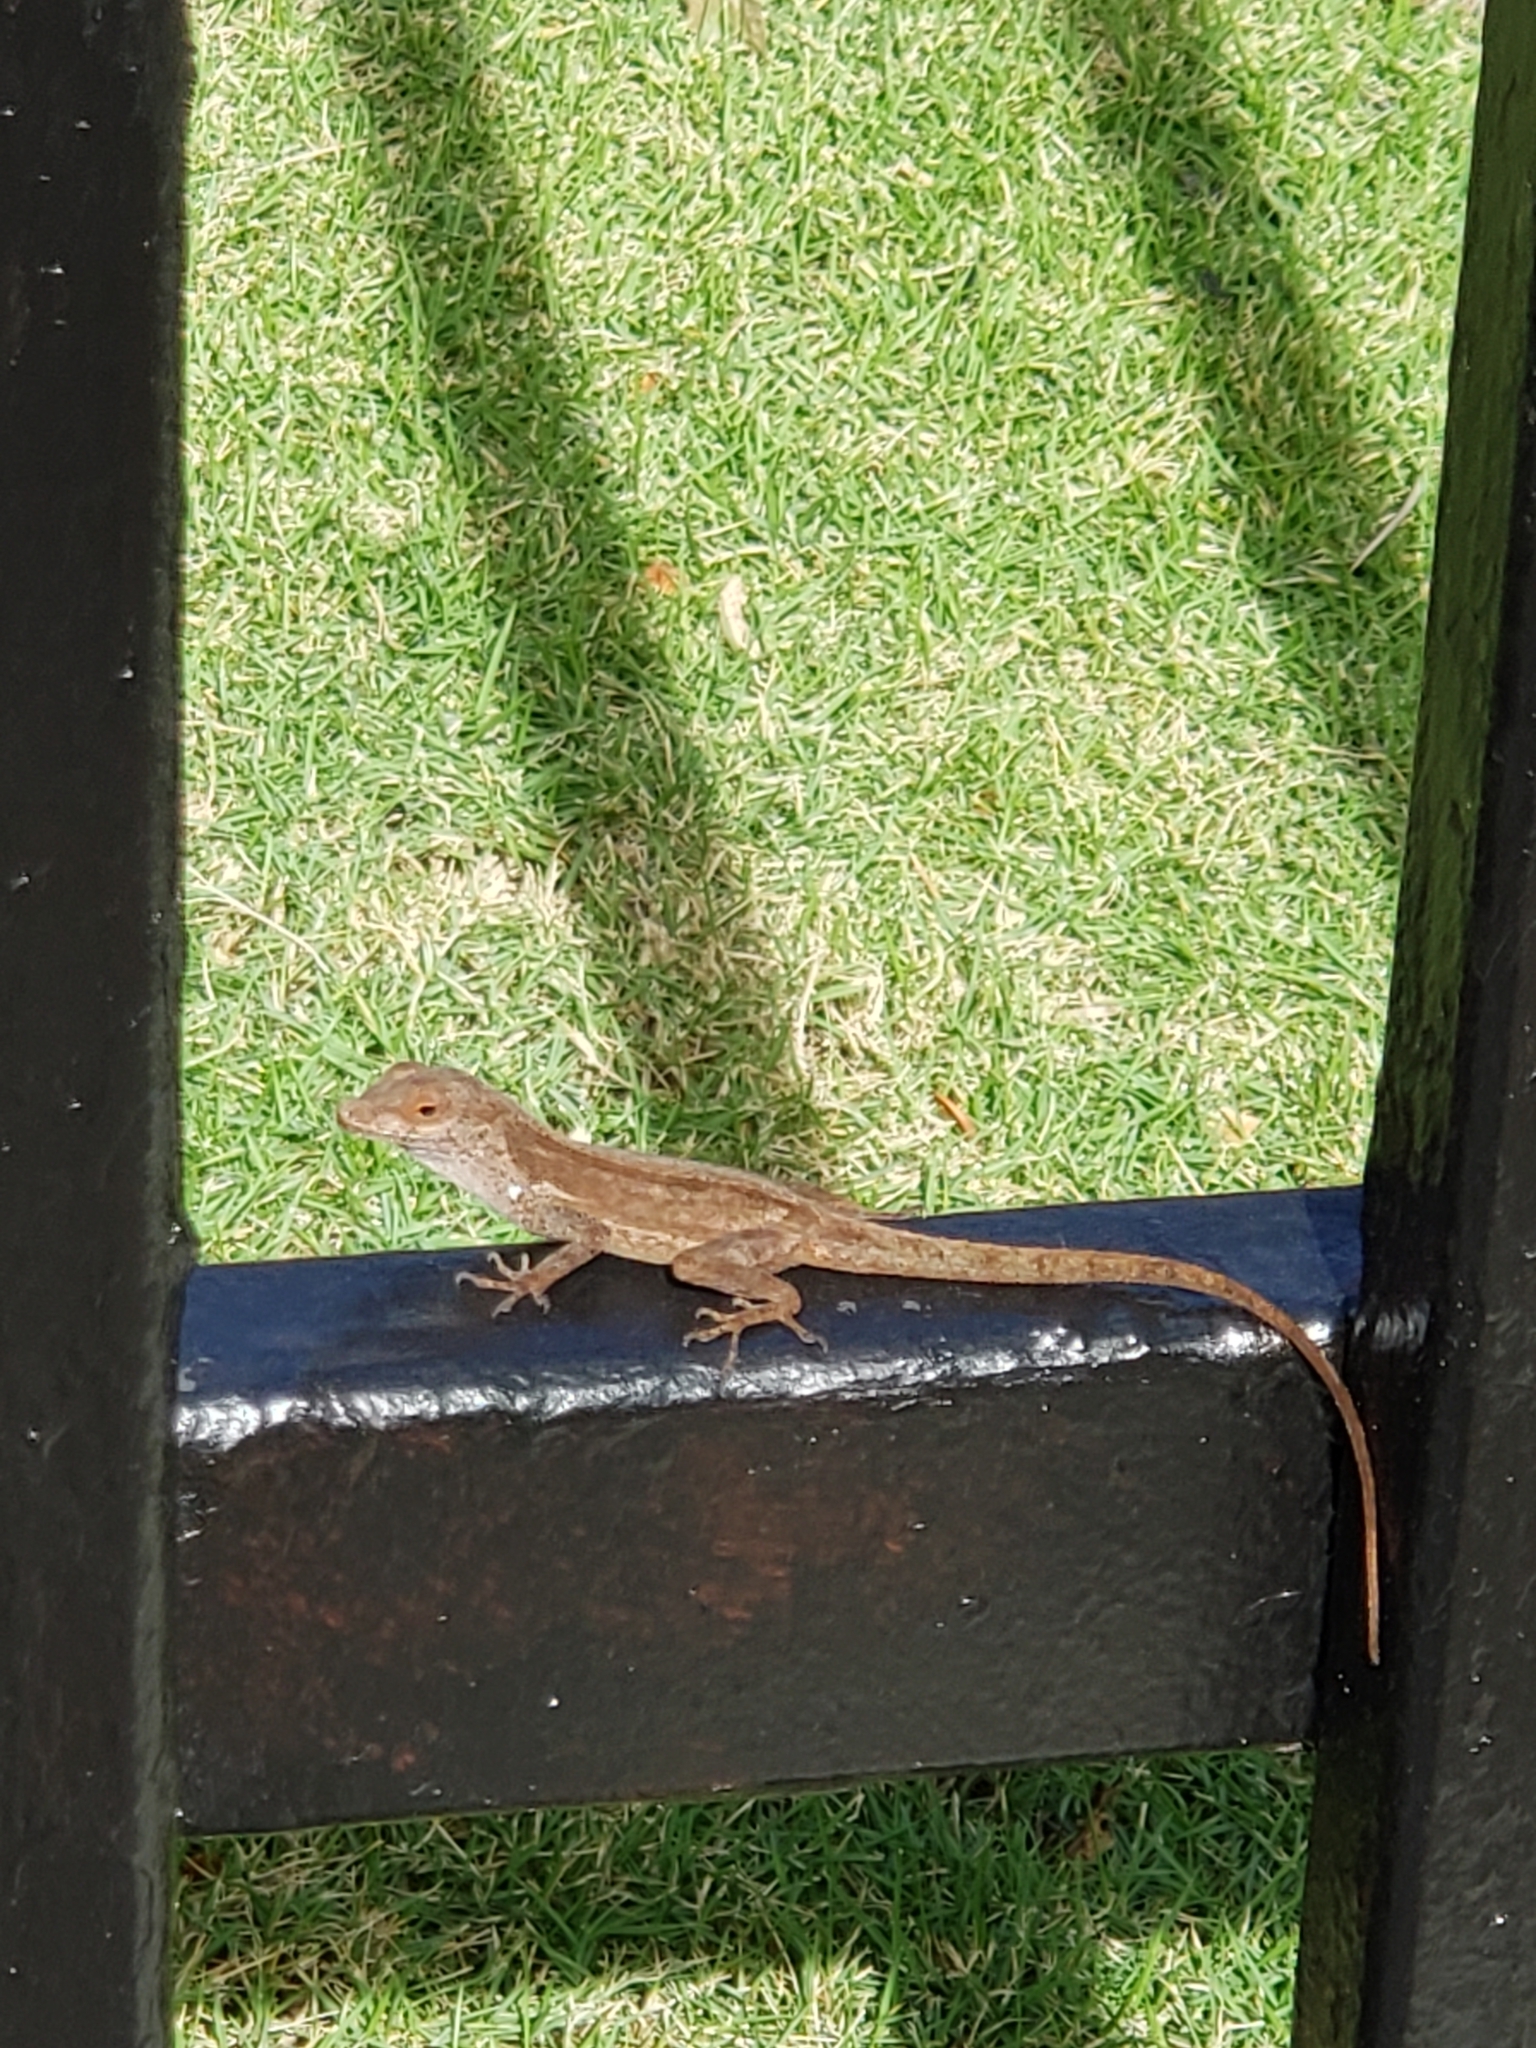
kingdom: Animalia
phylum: Chordata
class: Squamata
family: Dactyloidae
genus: Anolis
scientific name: Anolis cristatellus
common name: Crested anole
